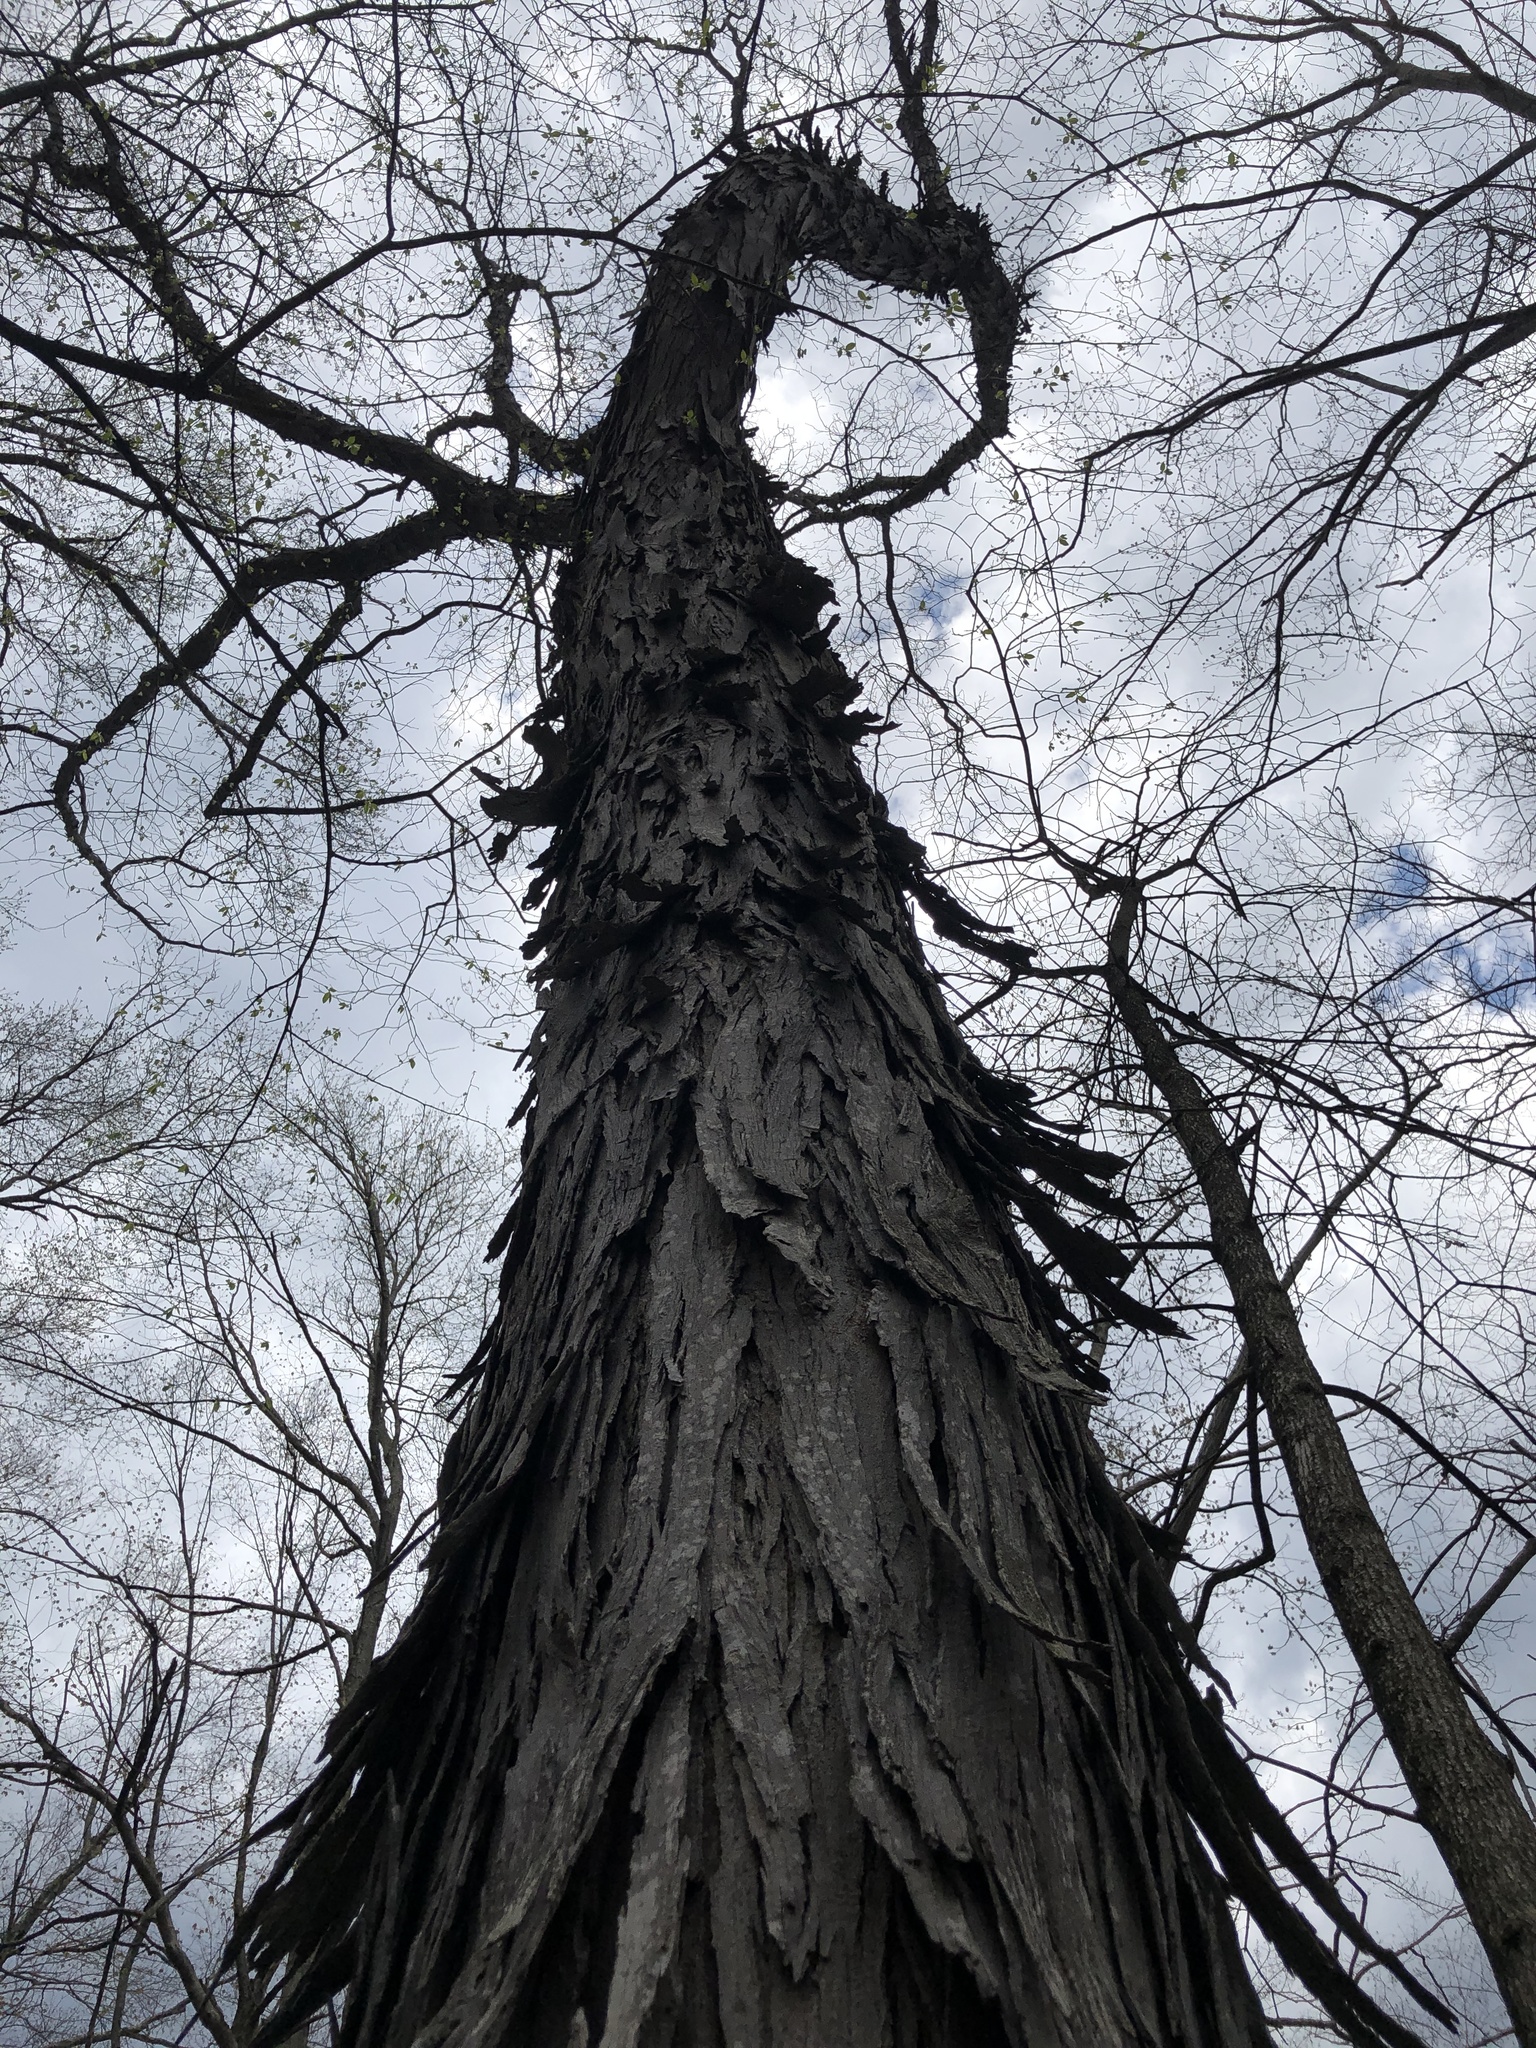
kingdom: Plantae
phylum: Tracheophyta
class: Magnoliopsida
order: Fagales
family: Juglandaceae
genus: Carya
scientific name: Carya ovata
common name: Shagbark hickory
